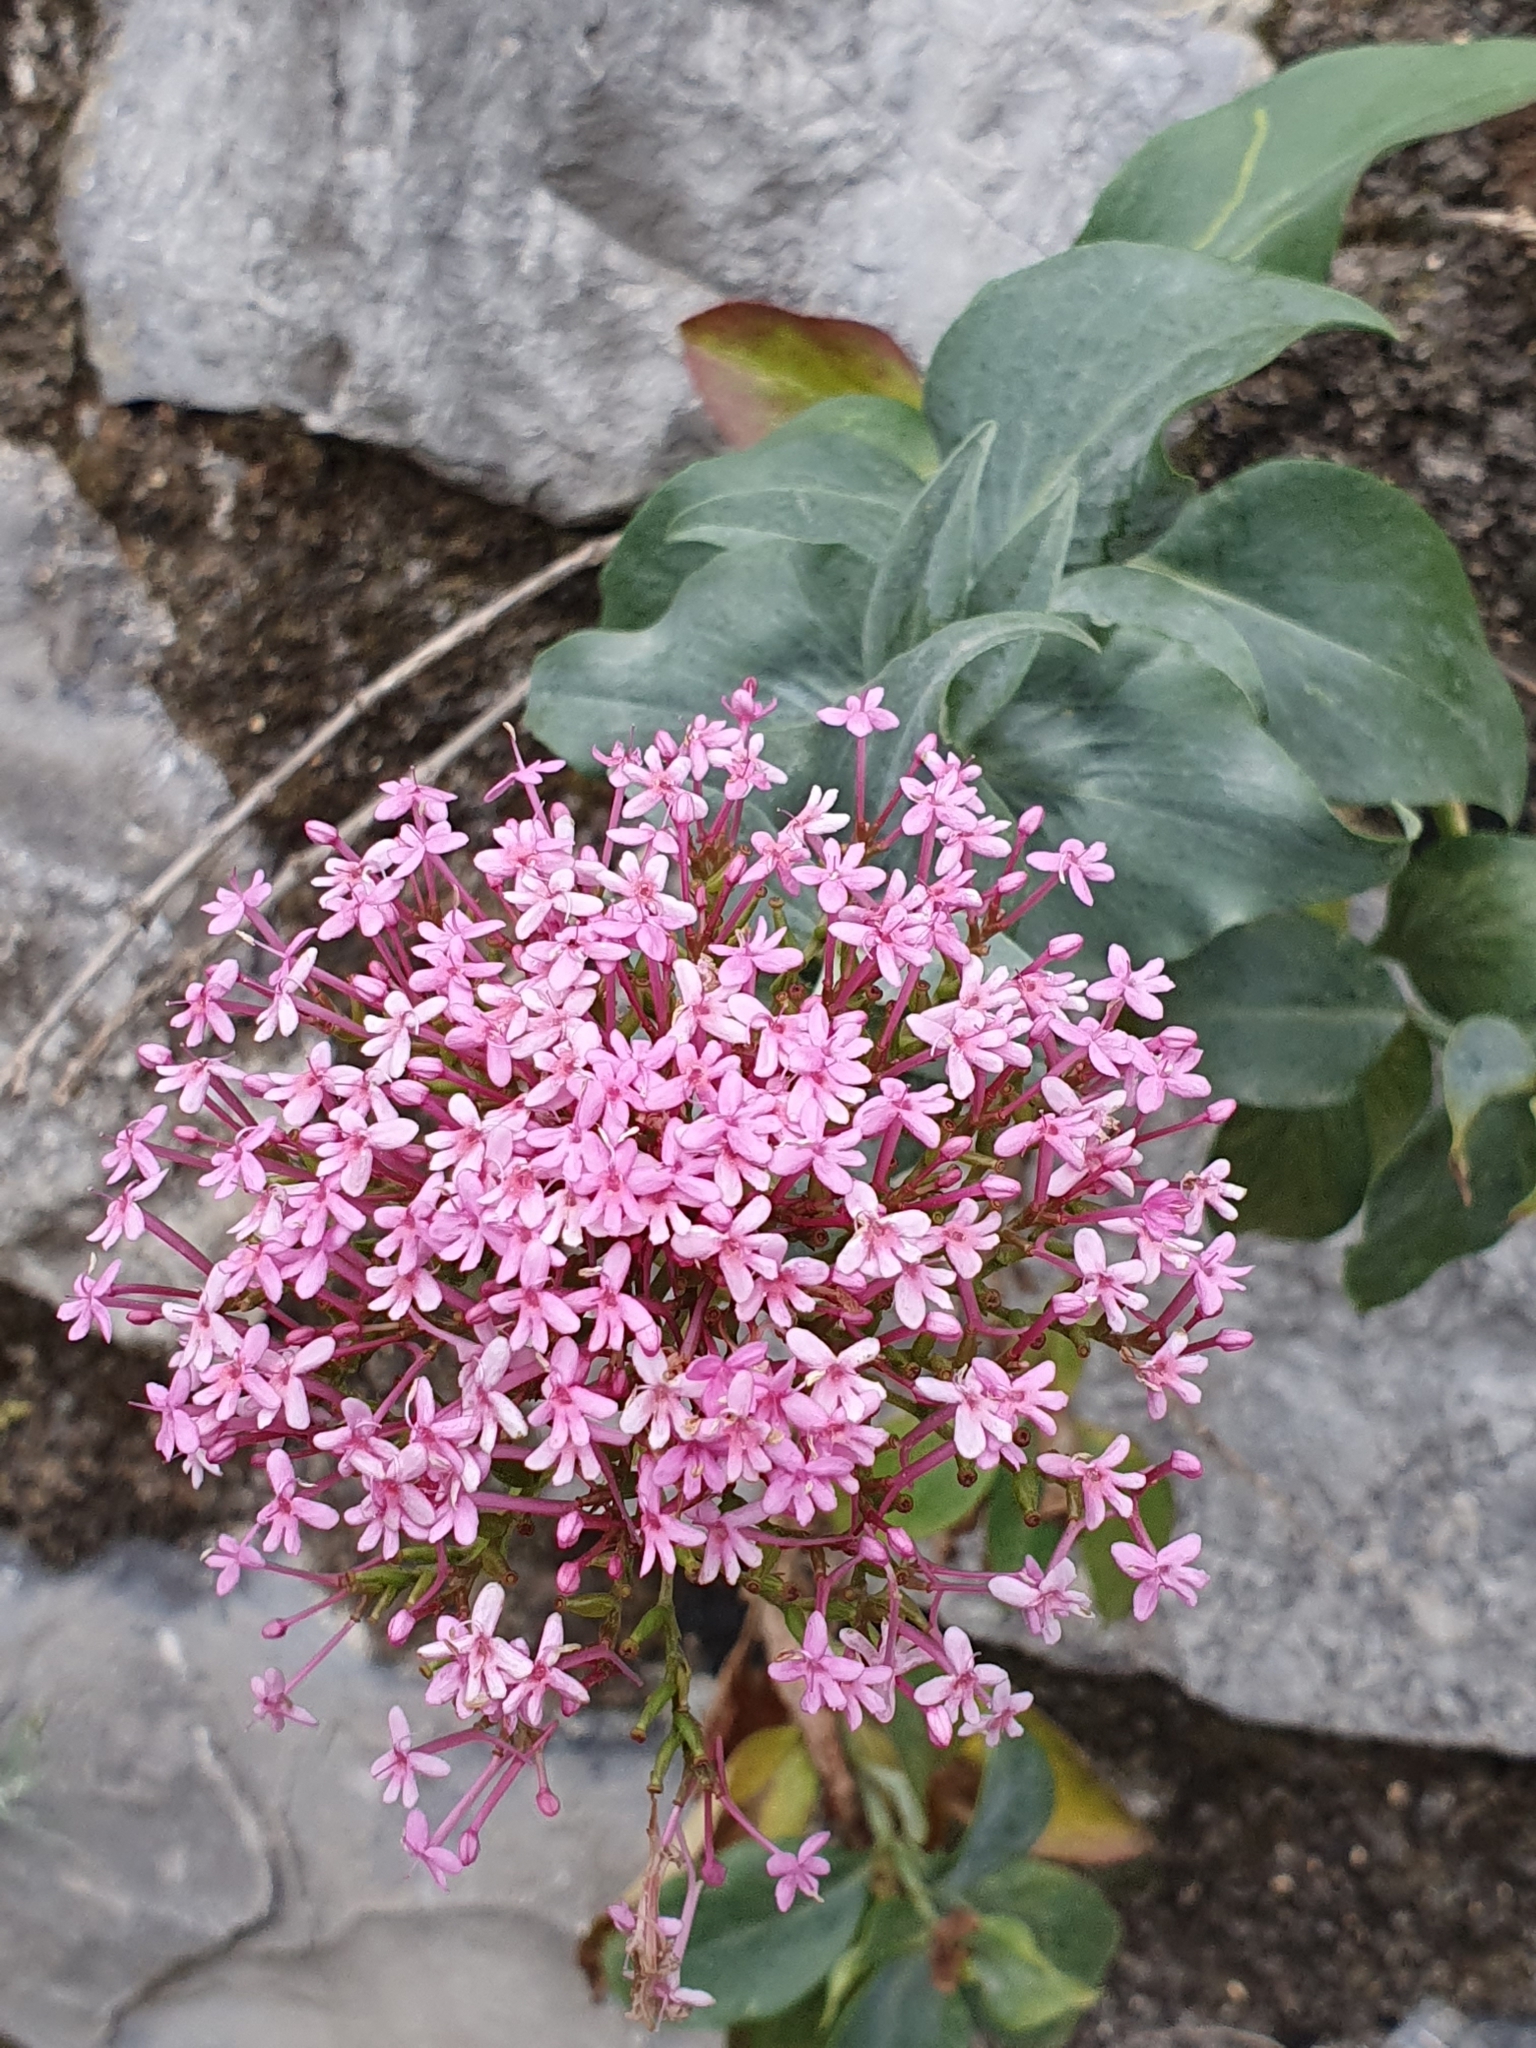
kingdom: Plantae
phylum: Tracheophyta
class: Magnoliopsida
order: Dipsacales
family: Caprifoliaceae
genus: Centranthus
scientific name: Centranthus ruber
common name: Red valerian
